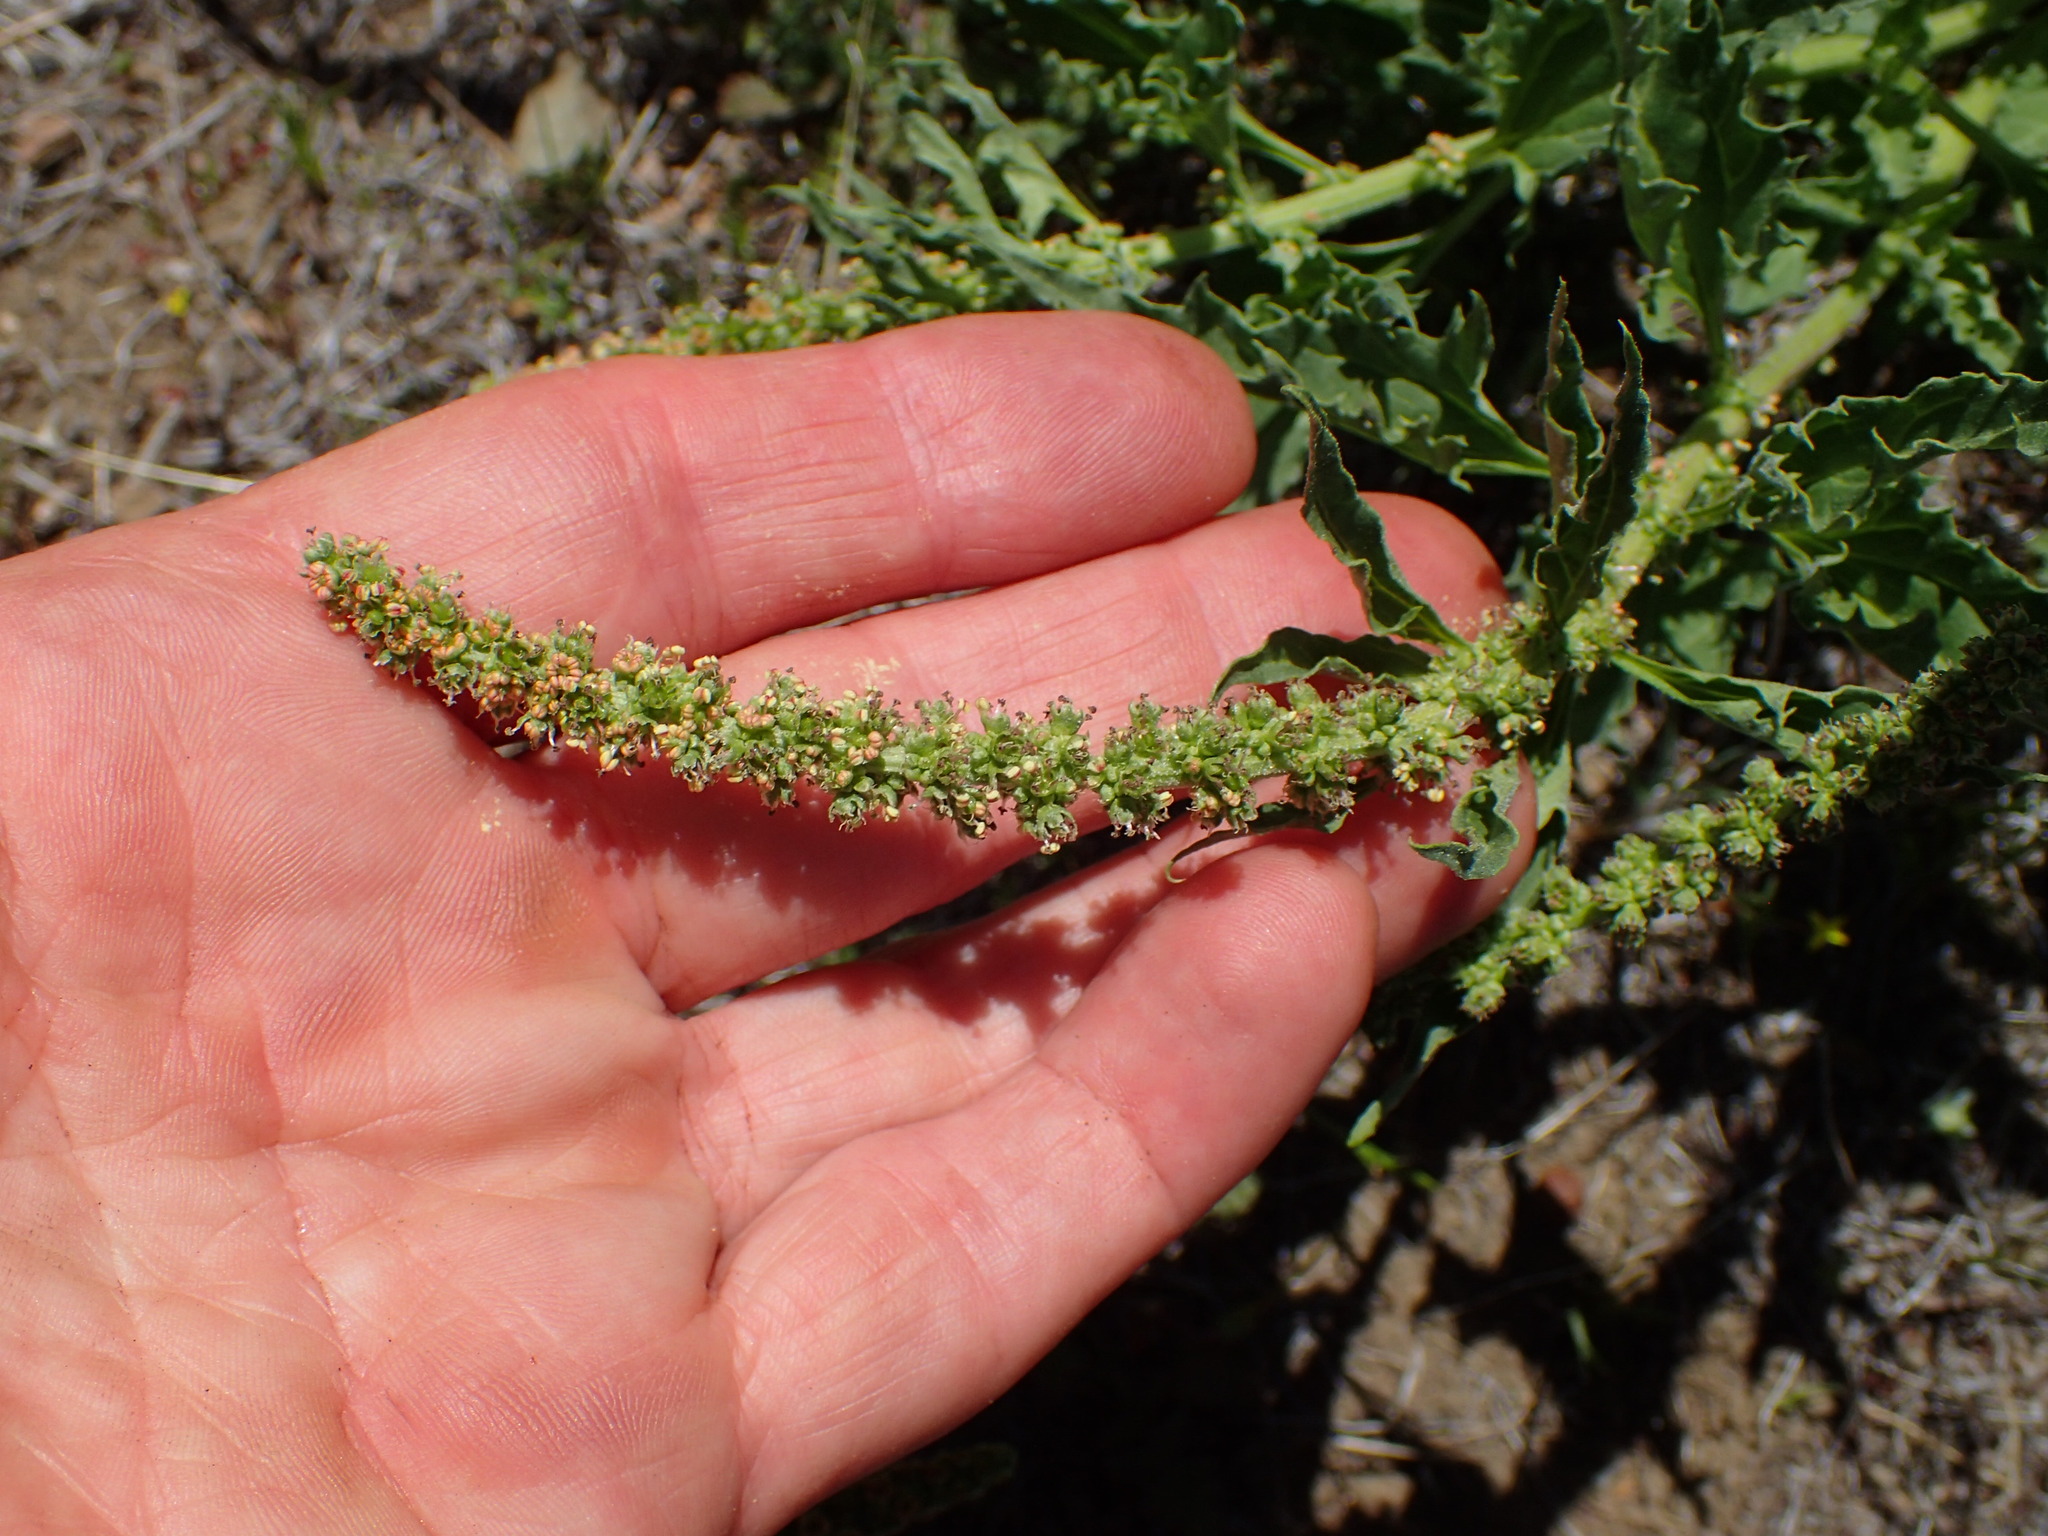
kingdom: Plantae
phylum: Tracheophyta
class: Magnoliopsida
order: Caryophyllales
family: Amaranthaceae
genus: Blitum
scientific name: Blitum californicum
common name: California goosefoot
